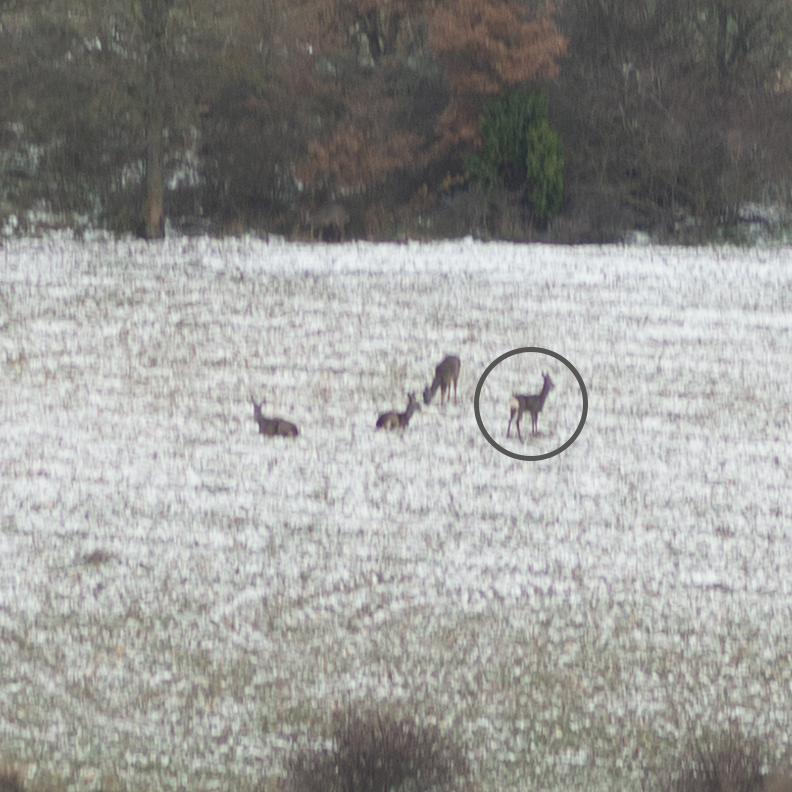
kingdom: Animalia
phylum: Chordata
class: Mammalia
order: Artiodactyla
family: Cervidae
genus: Capreolus
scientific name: Capreolus capreolus
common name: Western roe deer
